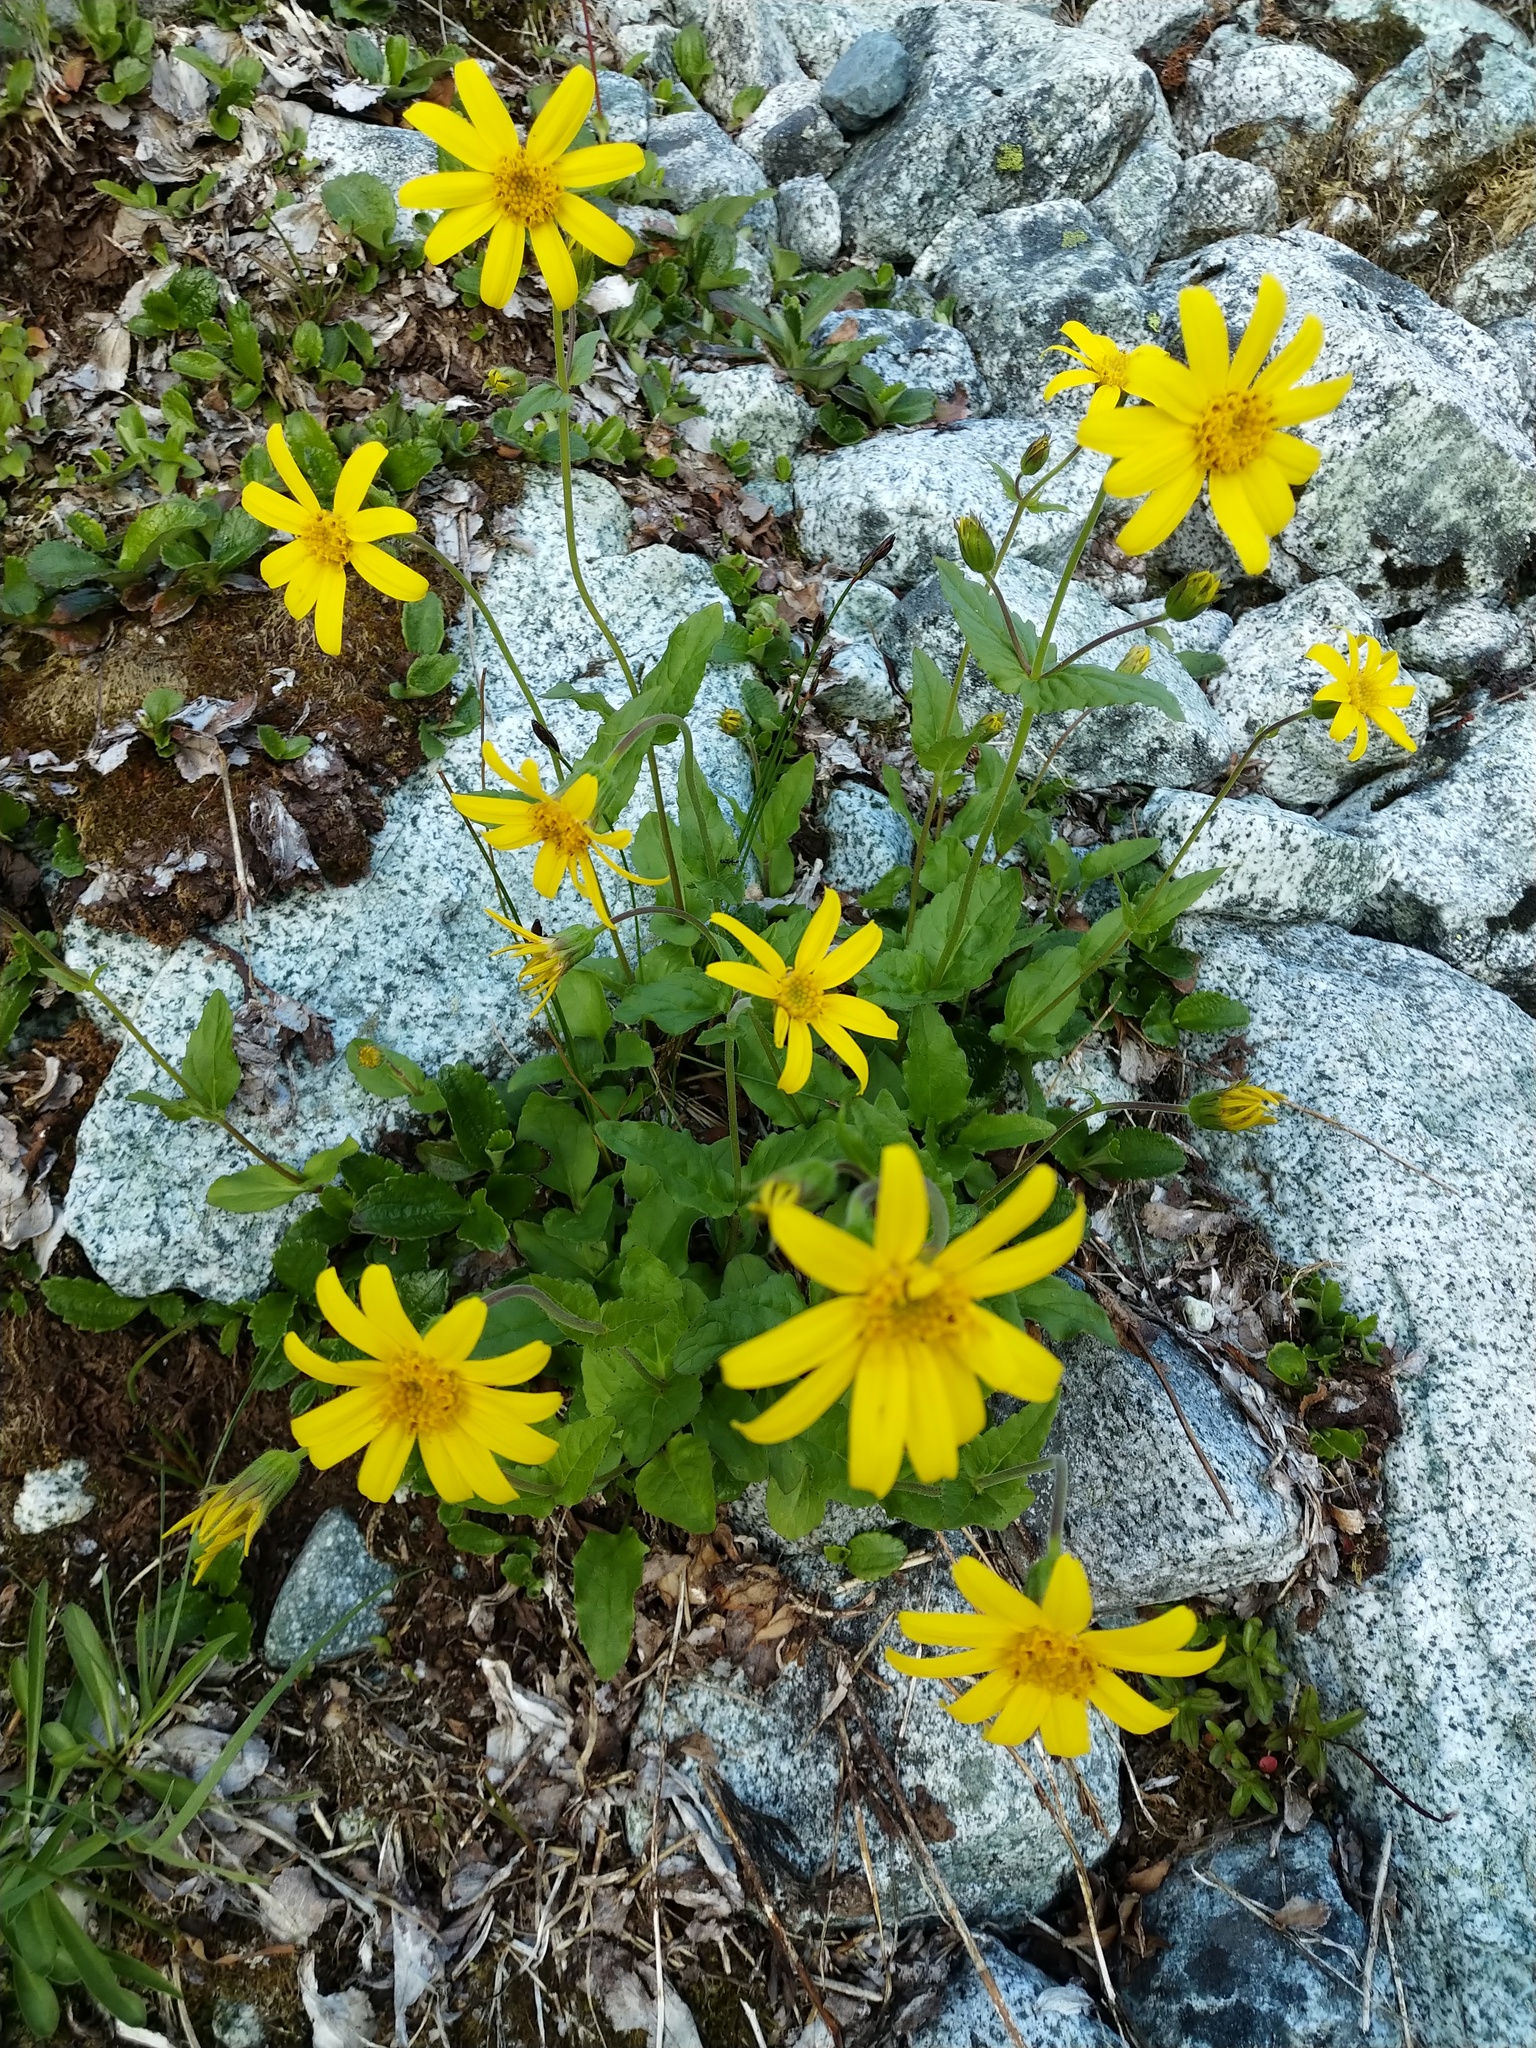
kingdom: Plantae
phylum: Tracheophyta
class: Magnoliopsida
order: Asterales
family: Asteraceae
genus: Arnica
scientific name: Arnica latifolia
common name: Arnica
